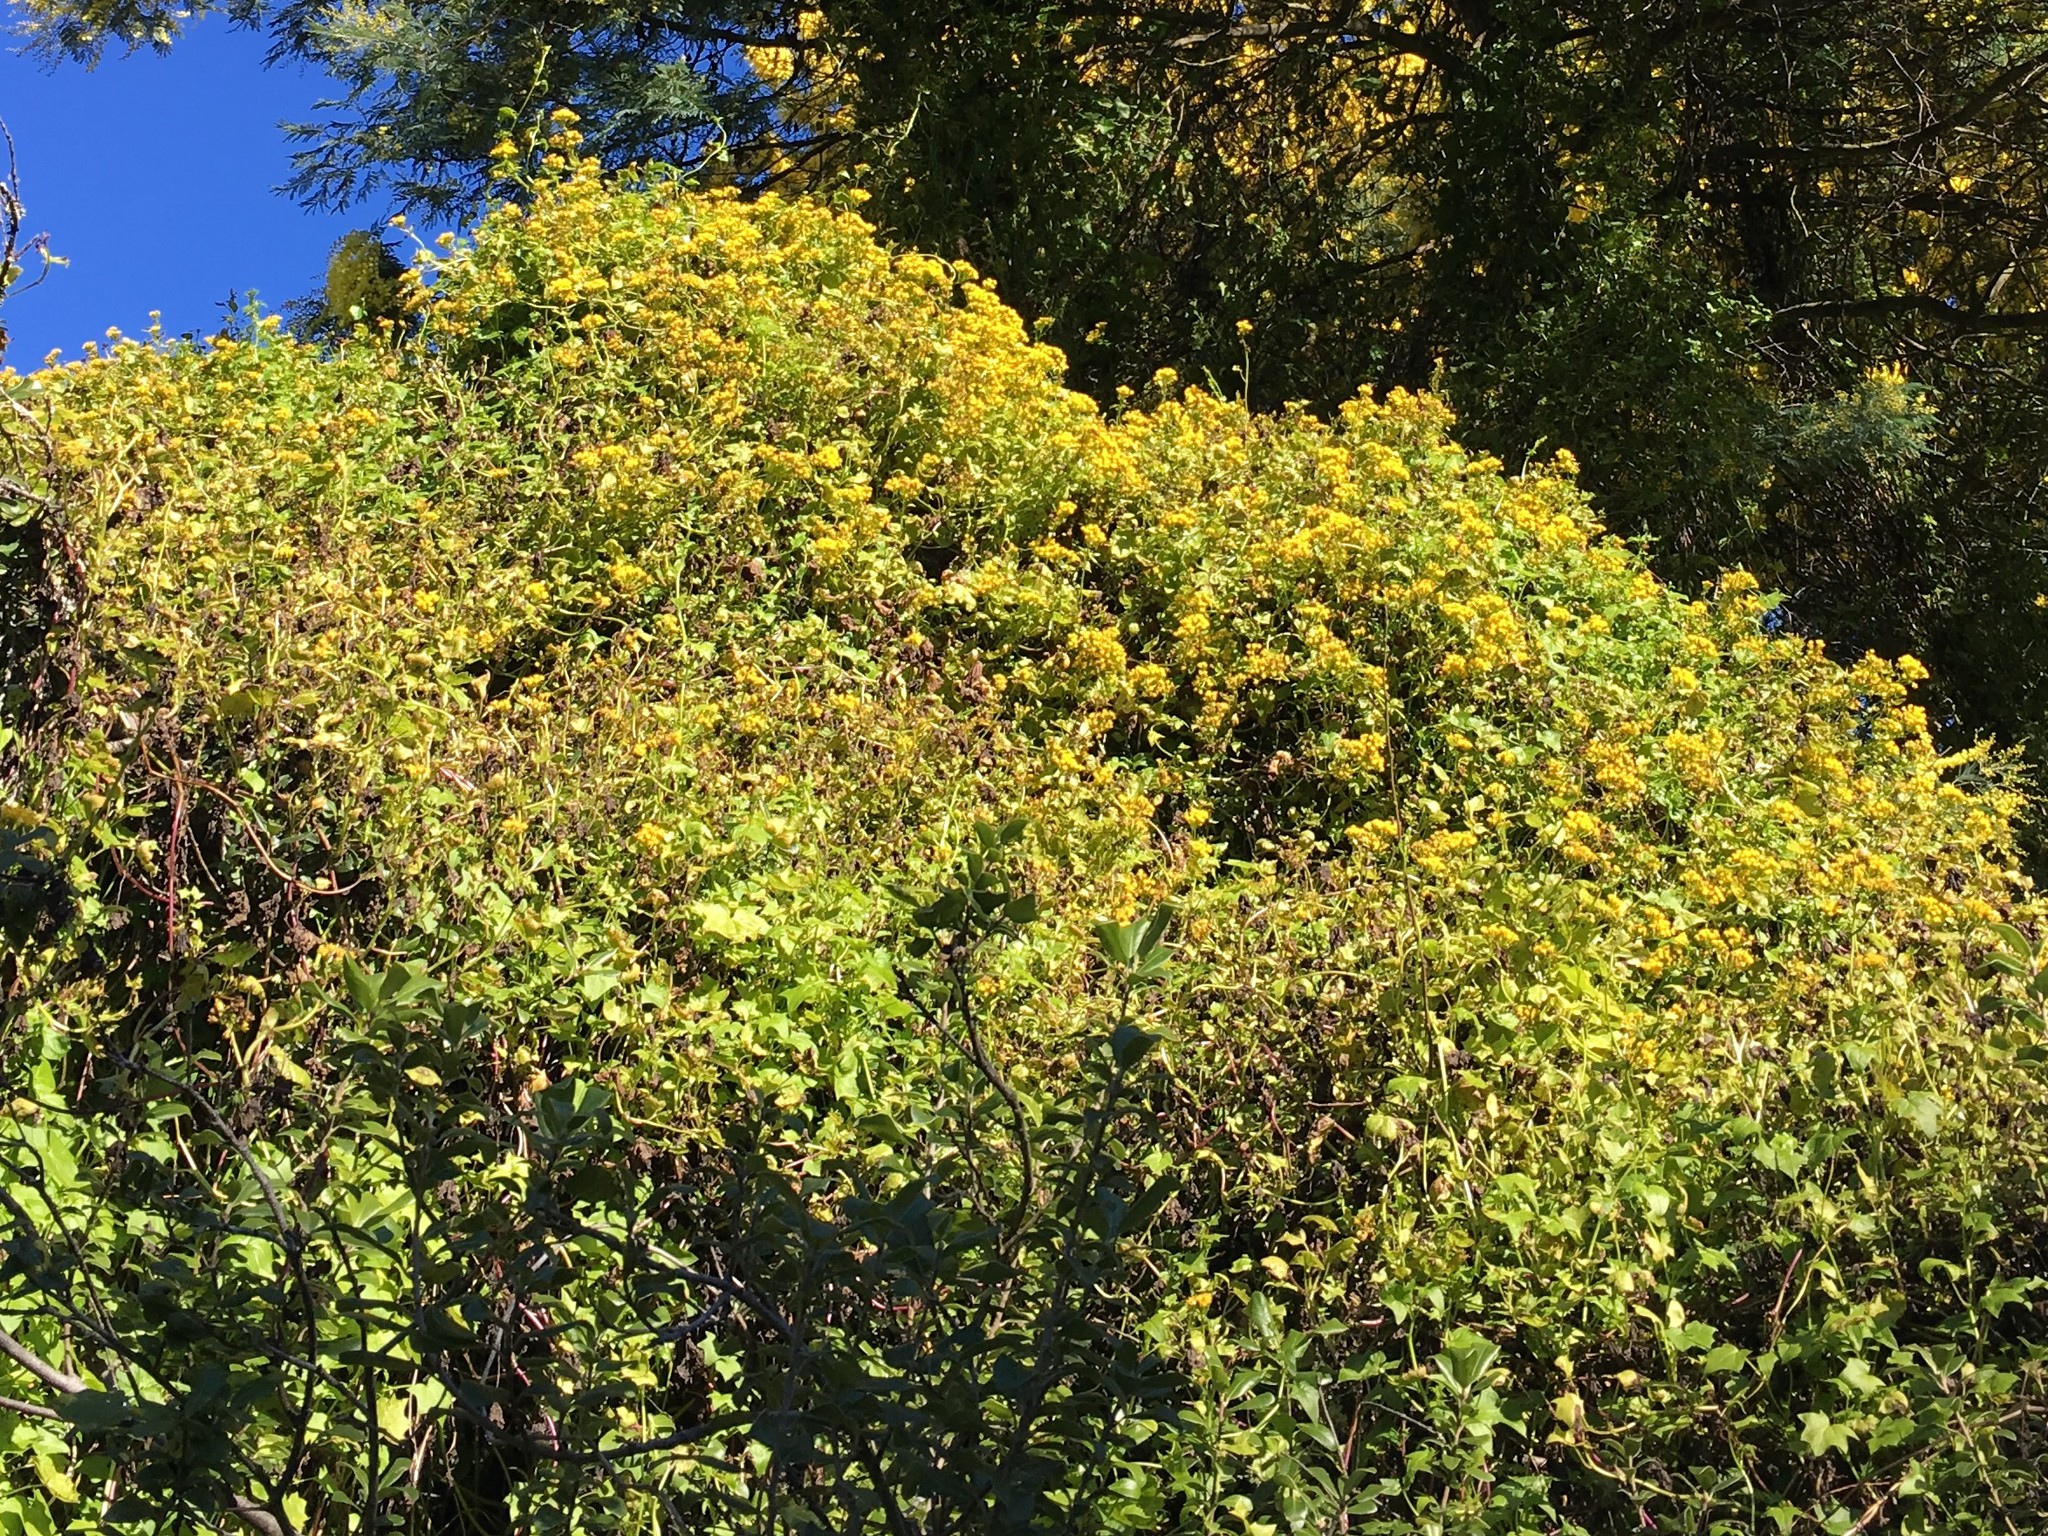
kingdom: Plantae
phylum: Tracheophyta
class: Magnoliopsida
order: Asterales
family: Asteraceae
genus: Delairea
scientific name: Delairea odorata
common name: Cape-ivy
